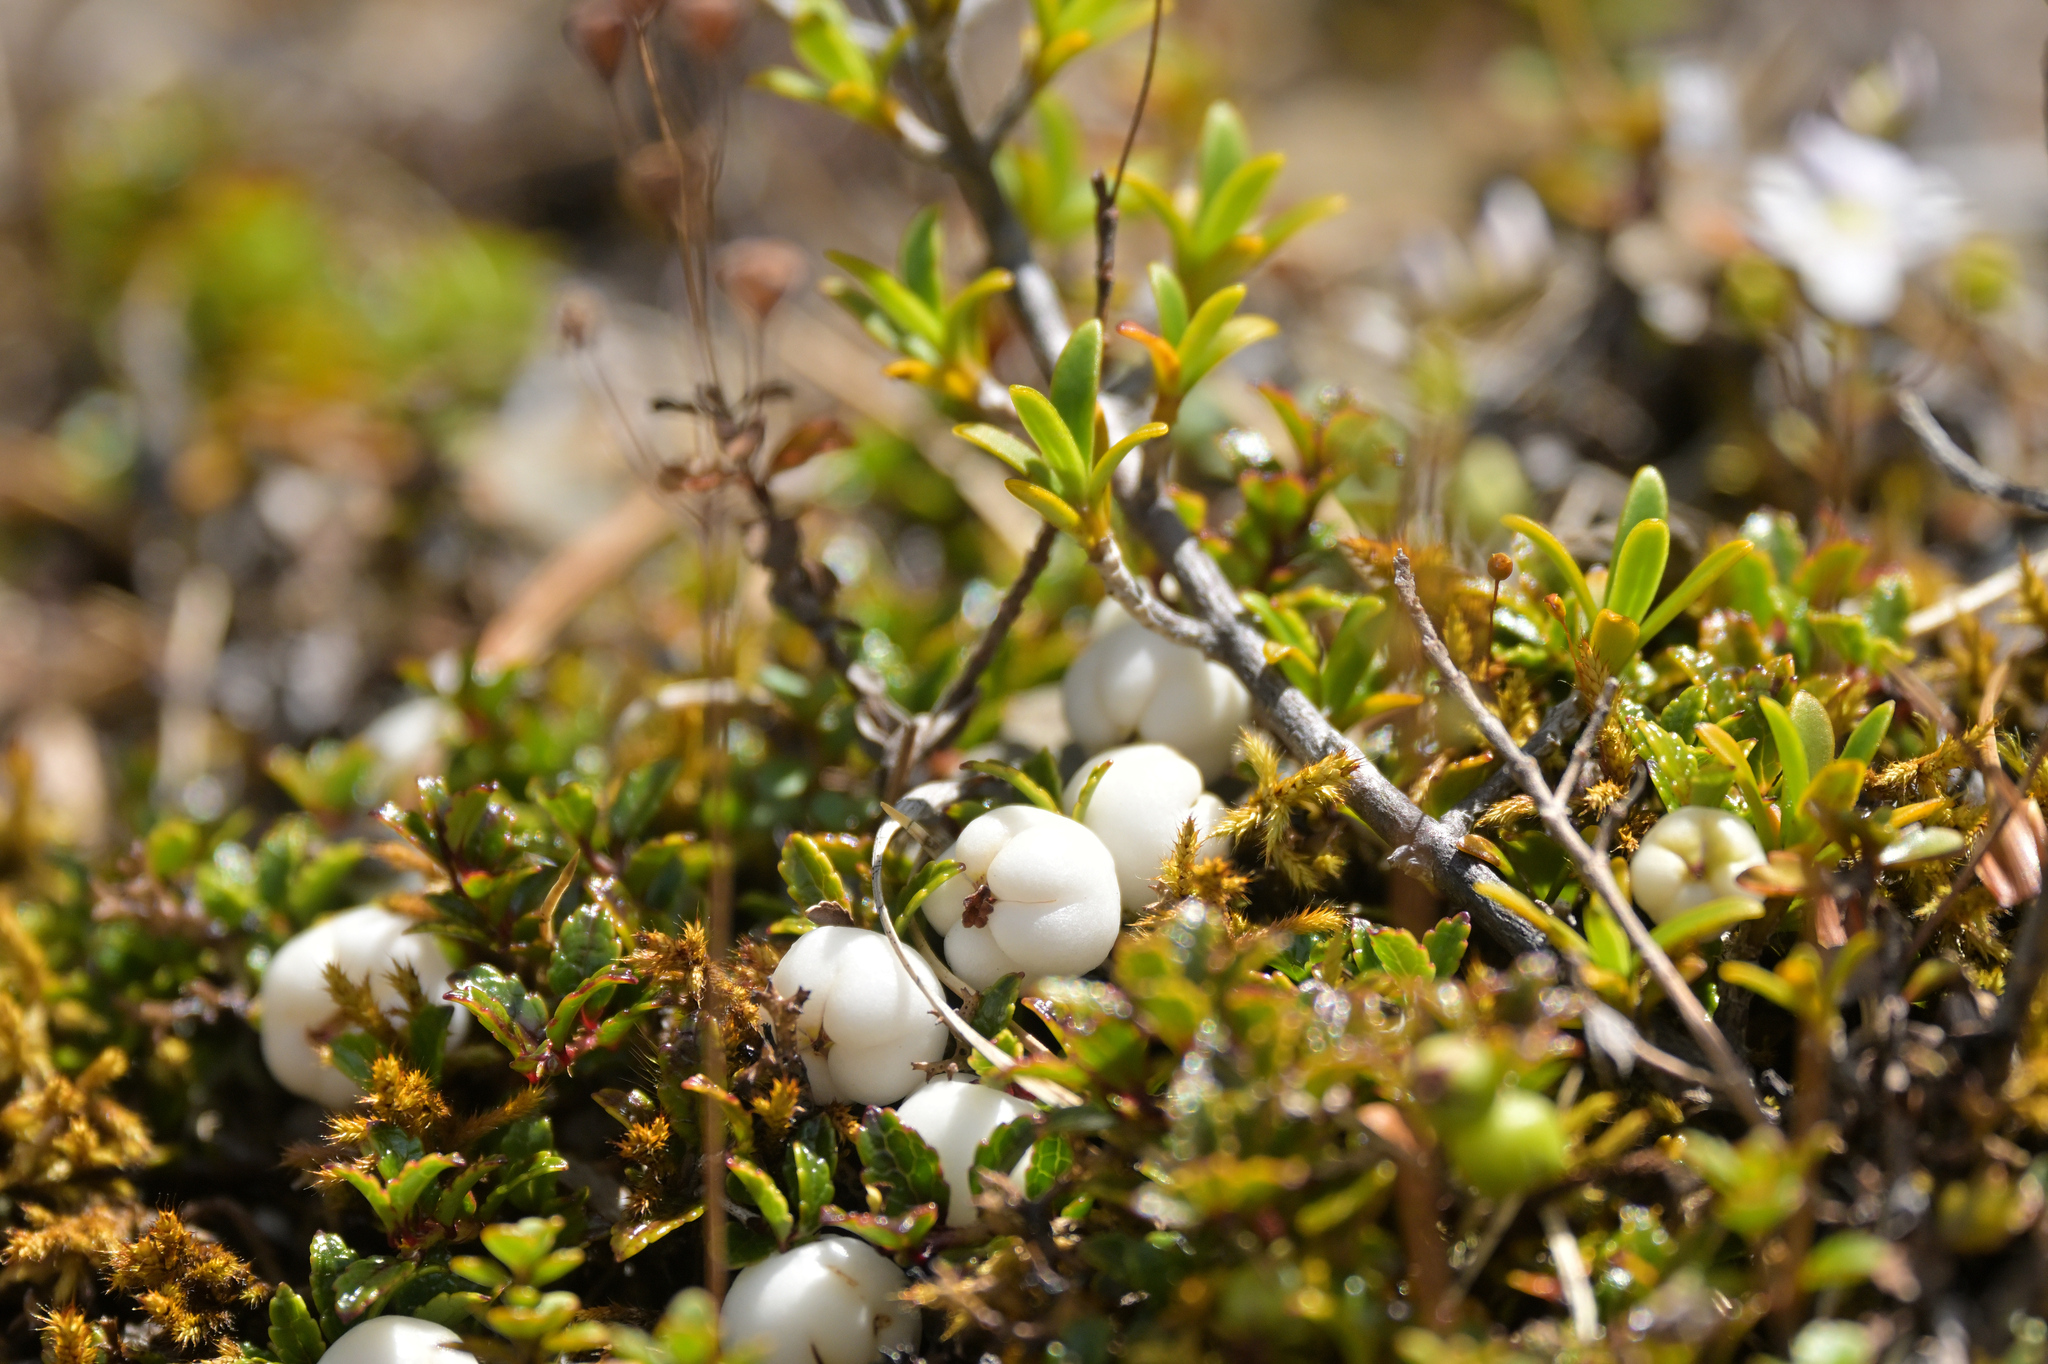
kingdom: Plantae
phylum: Tracheophyta
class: Magnoliopsida
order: Ericales
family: Ericaceae
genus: Gaultheria
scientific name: Gaultheria depressa
